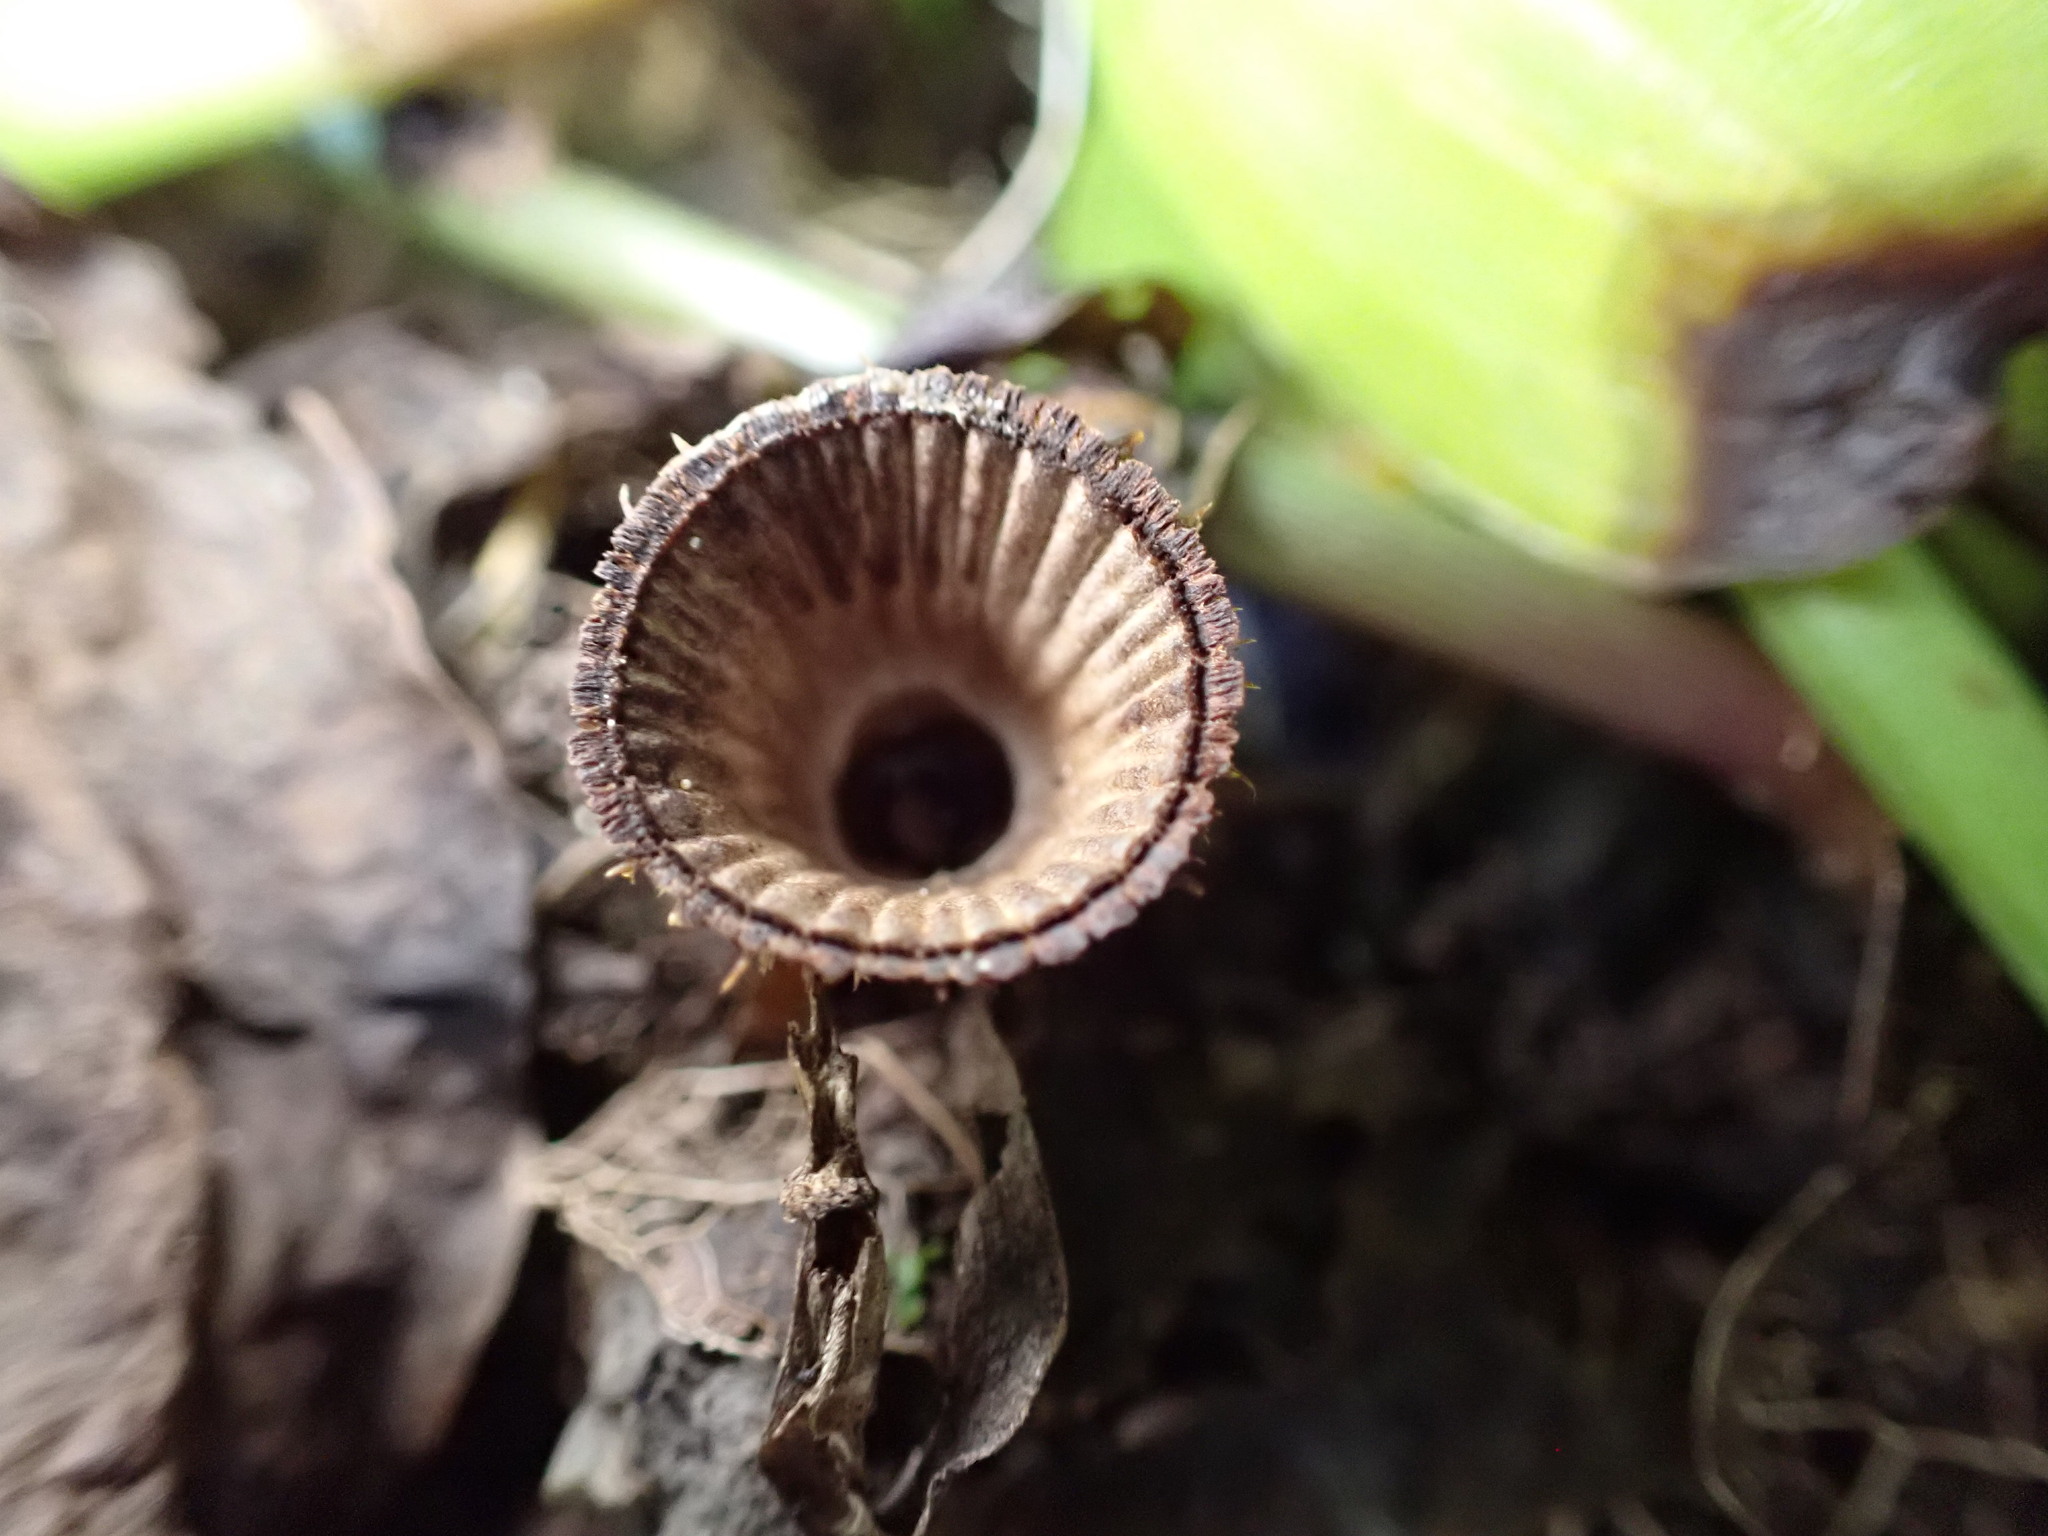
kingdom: Fungi
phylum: Basidiomycota
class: Agaricomycetes
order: Agaricales
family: Agaricaceae
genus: Cyathus
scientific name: Cyathus striatus
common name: Fluted bird's nest
